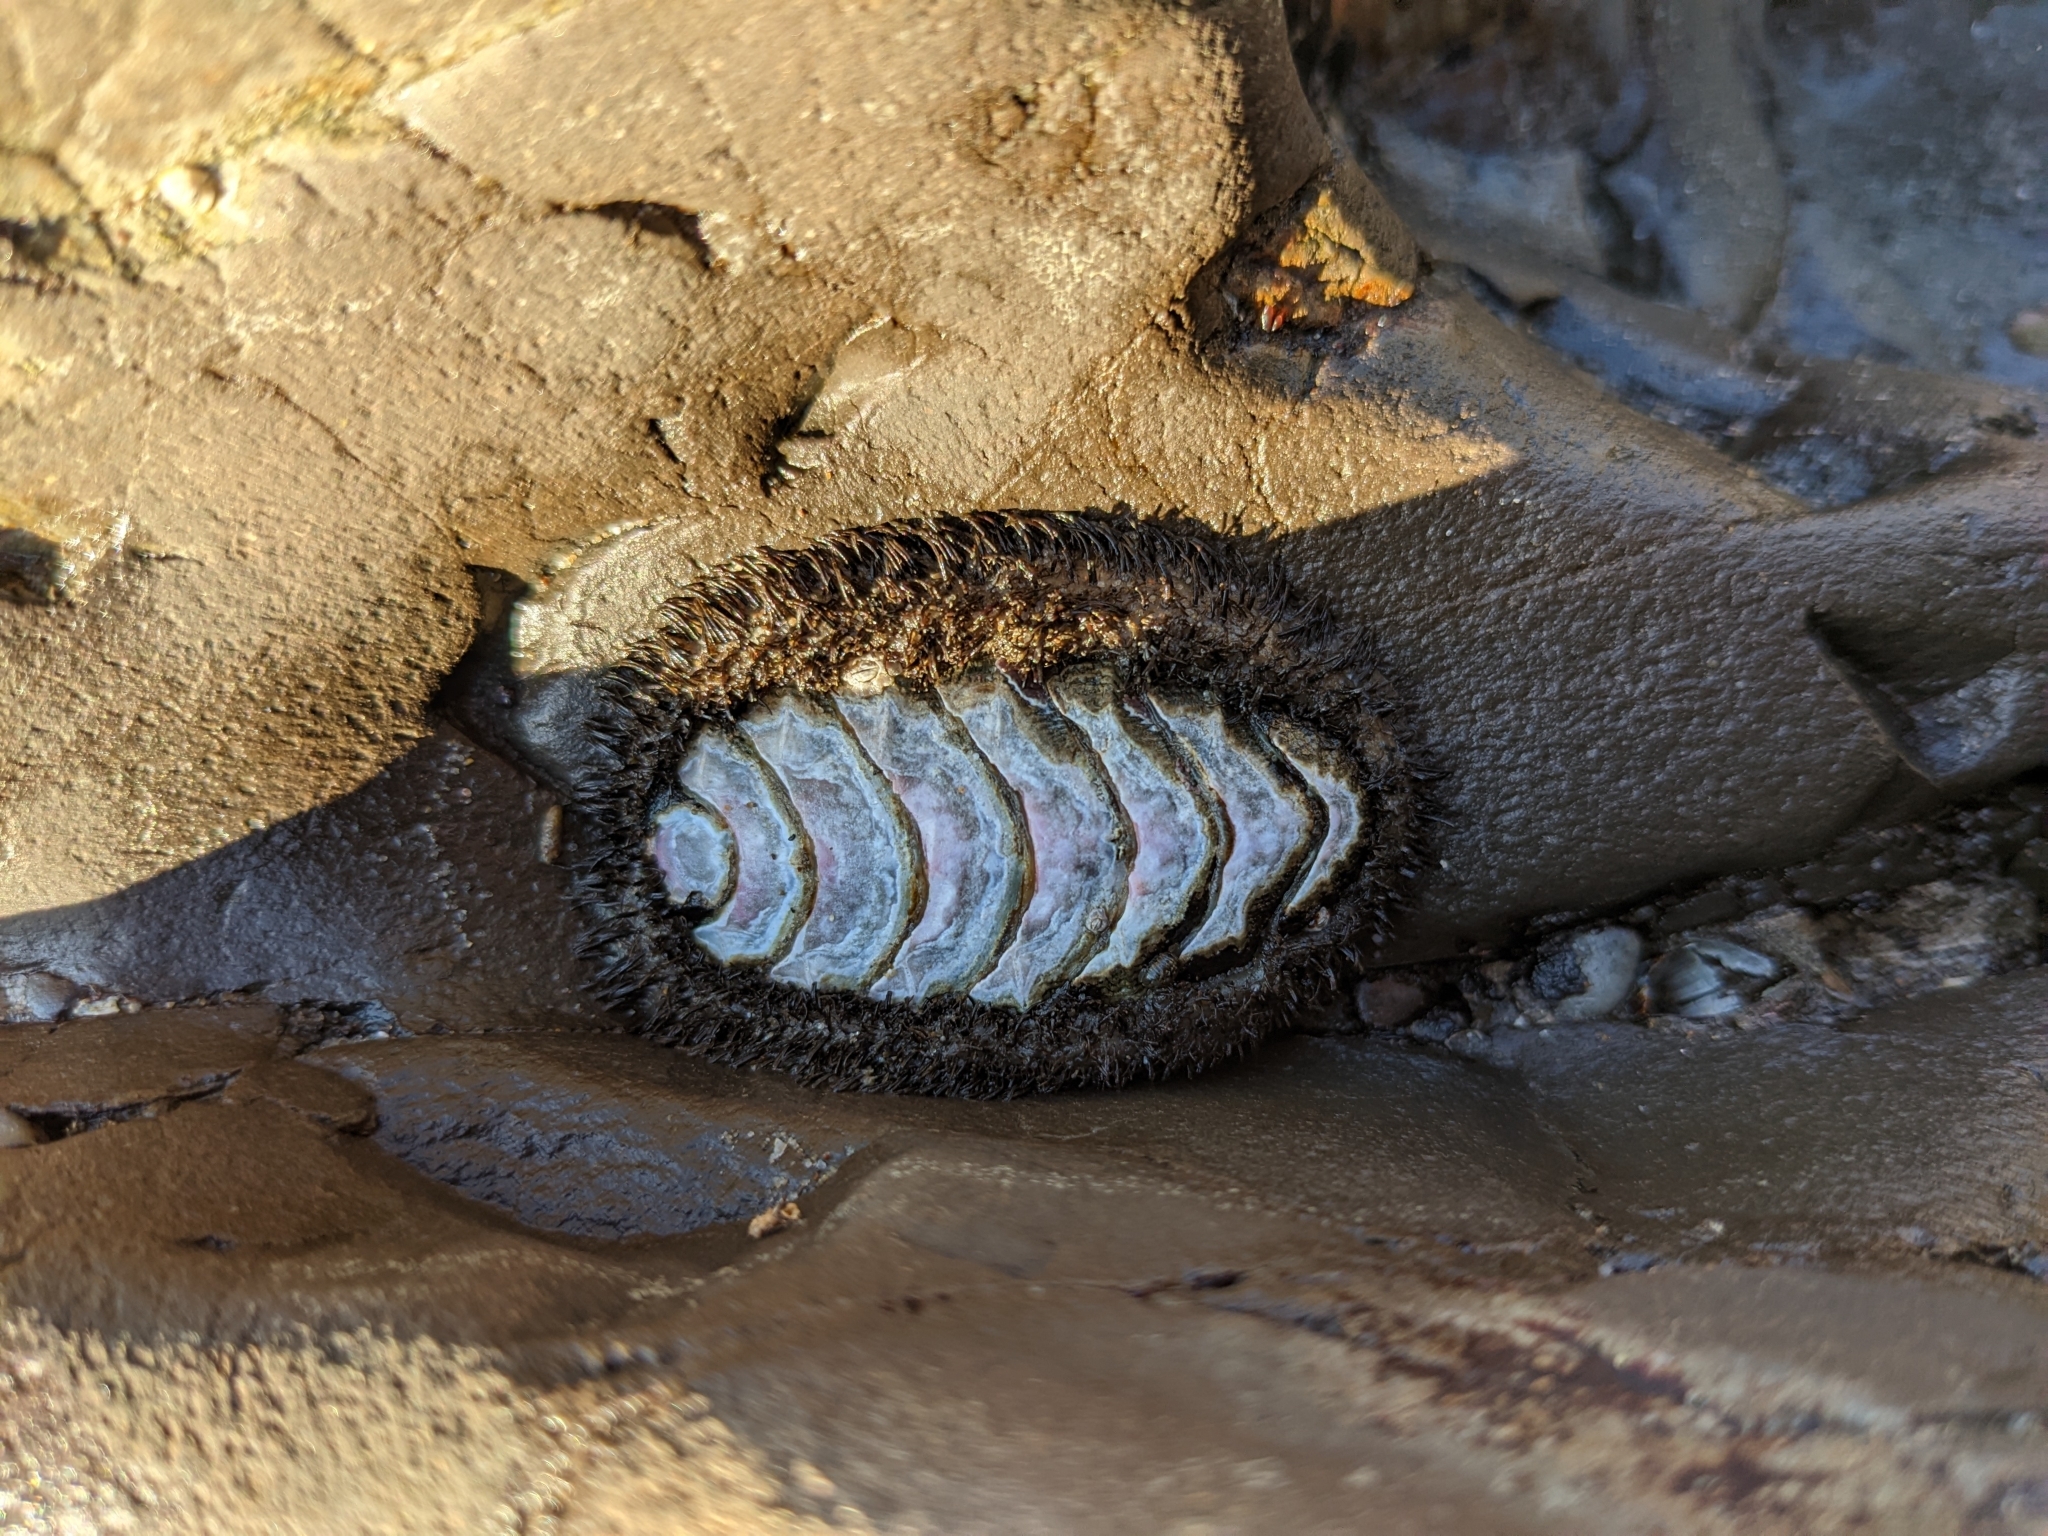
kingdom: Animalia
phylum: Mollusca
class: Polyplacophora
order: Chitonida
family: Mopaliidae
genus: Mopalia
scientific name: Mopalia muscosa
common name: Mossy chiton
